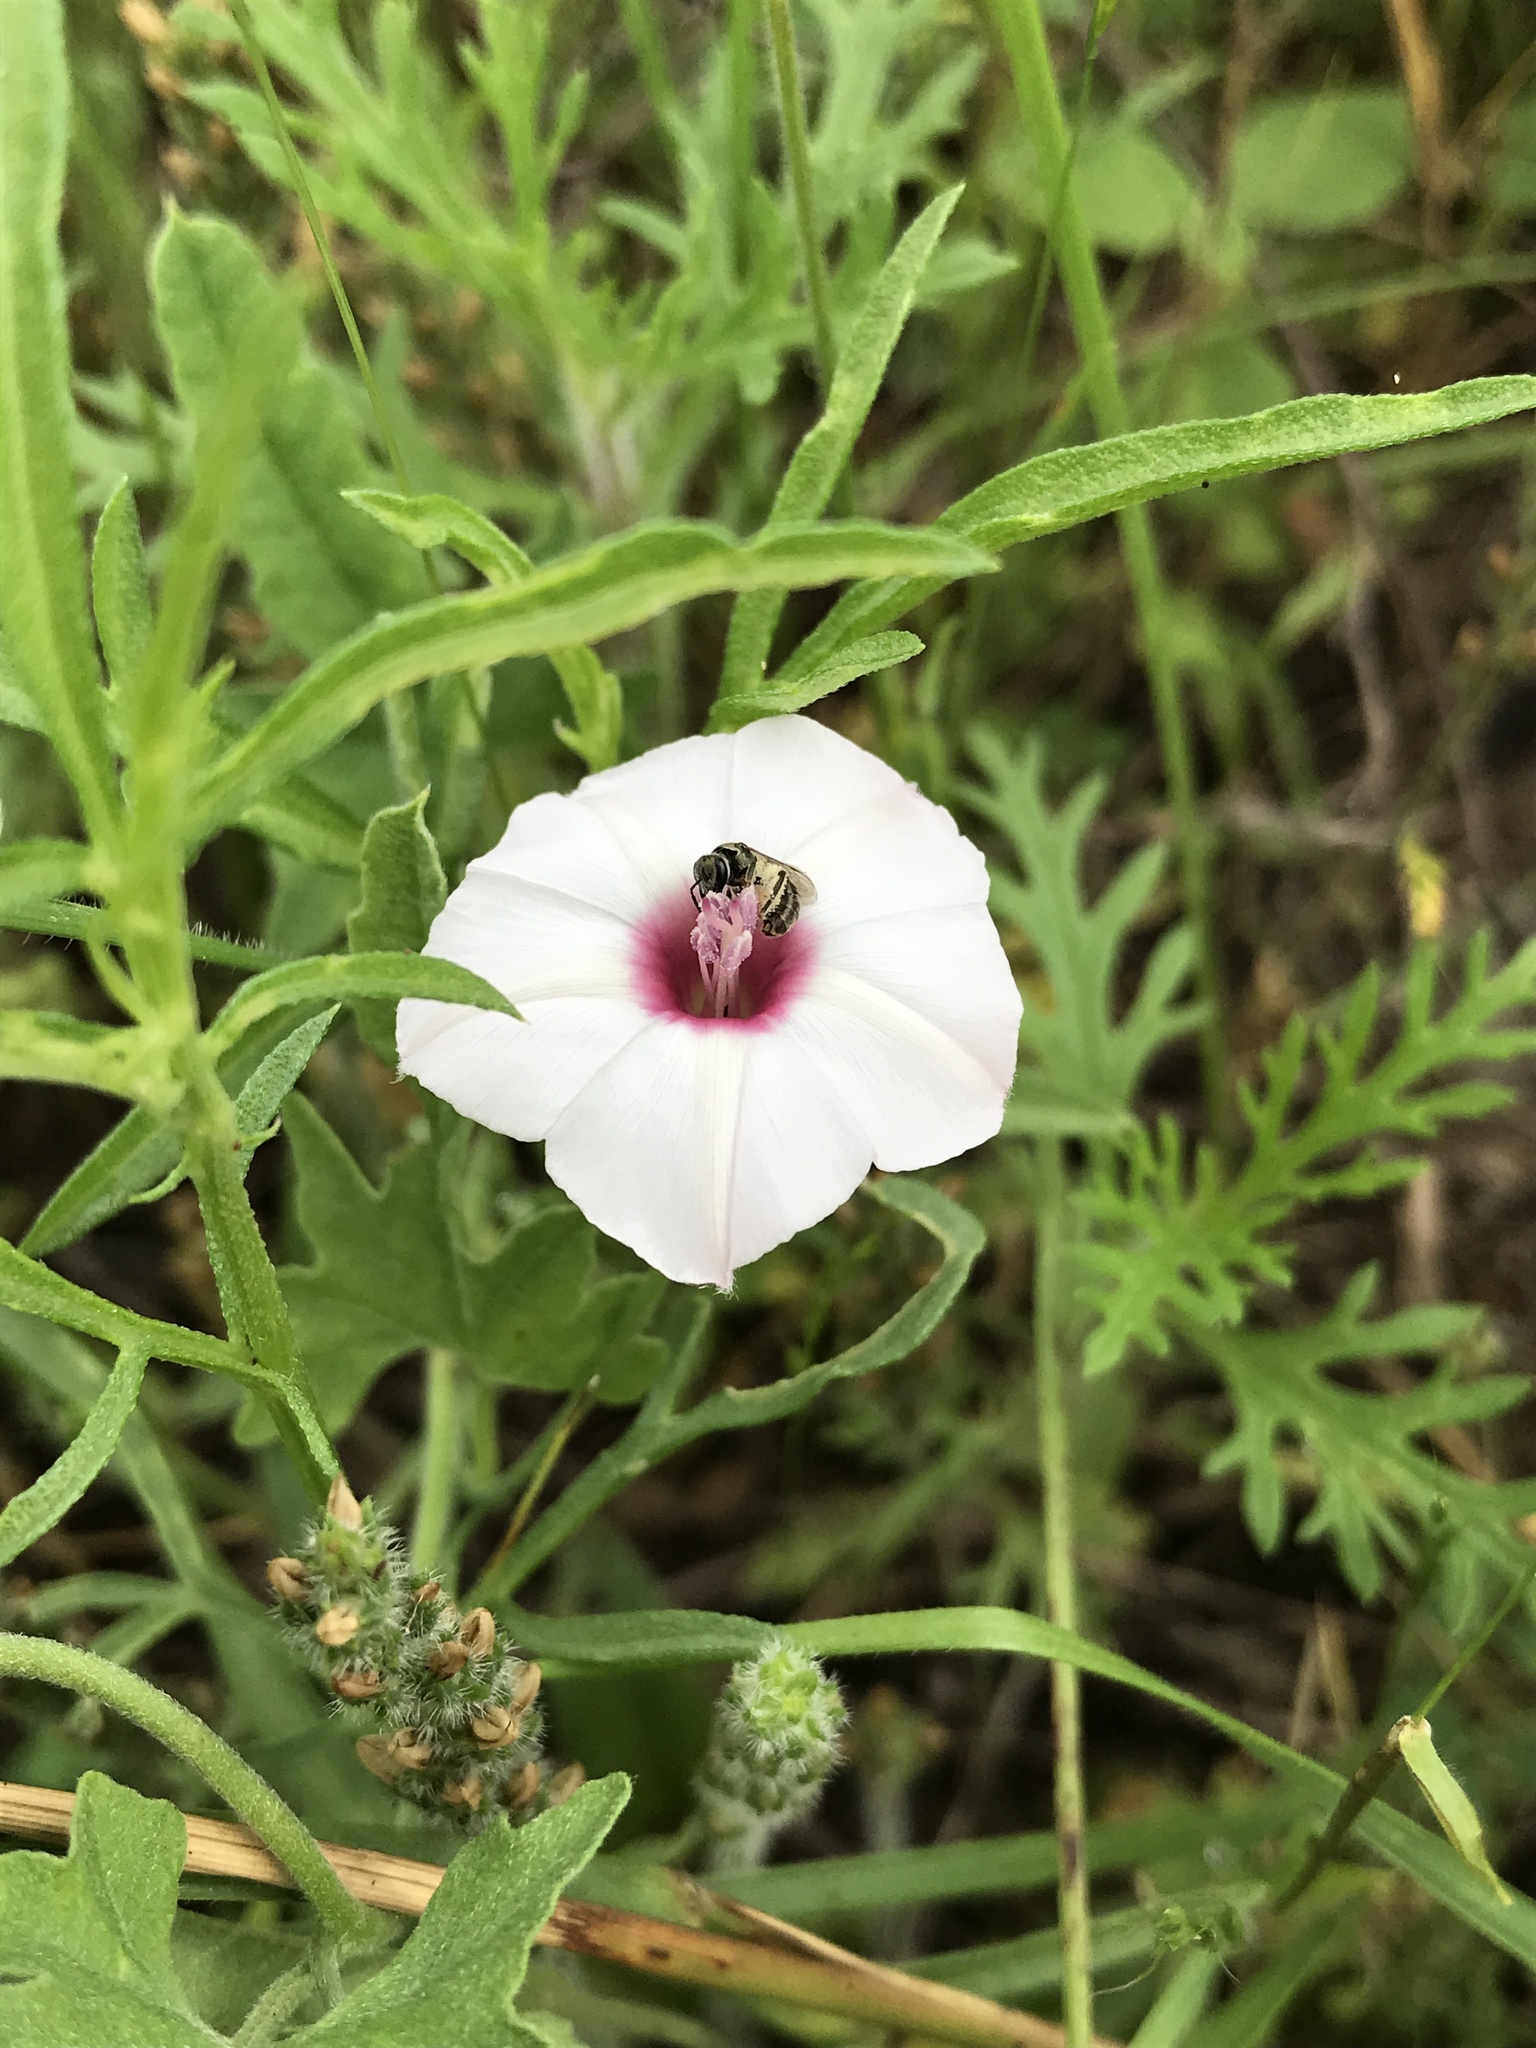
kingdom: Plantae
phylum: Tracheophyta
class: Magnoliopsida
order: Solanales
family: Convolvulaceae
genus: Convolvulus
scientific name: Convolvulus equitans
